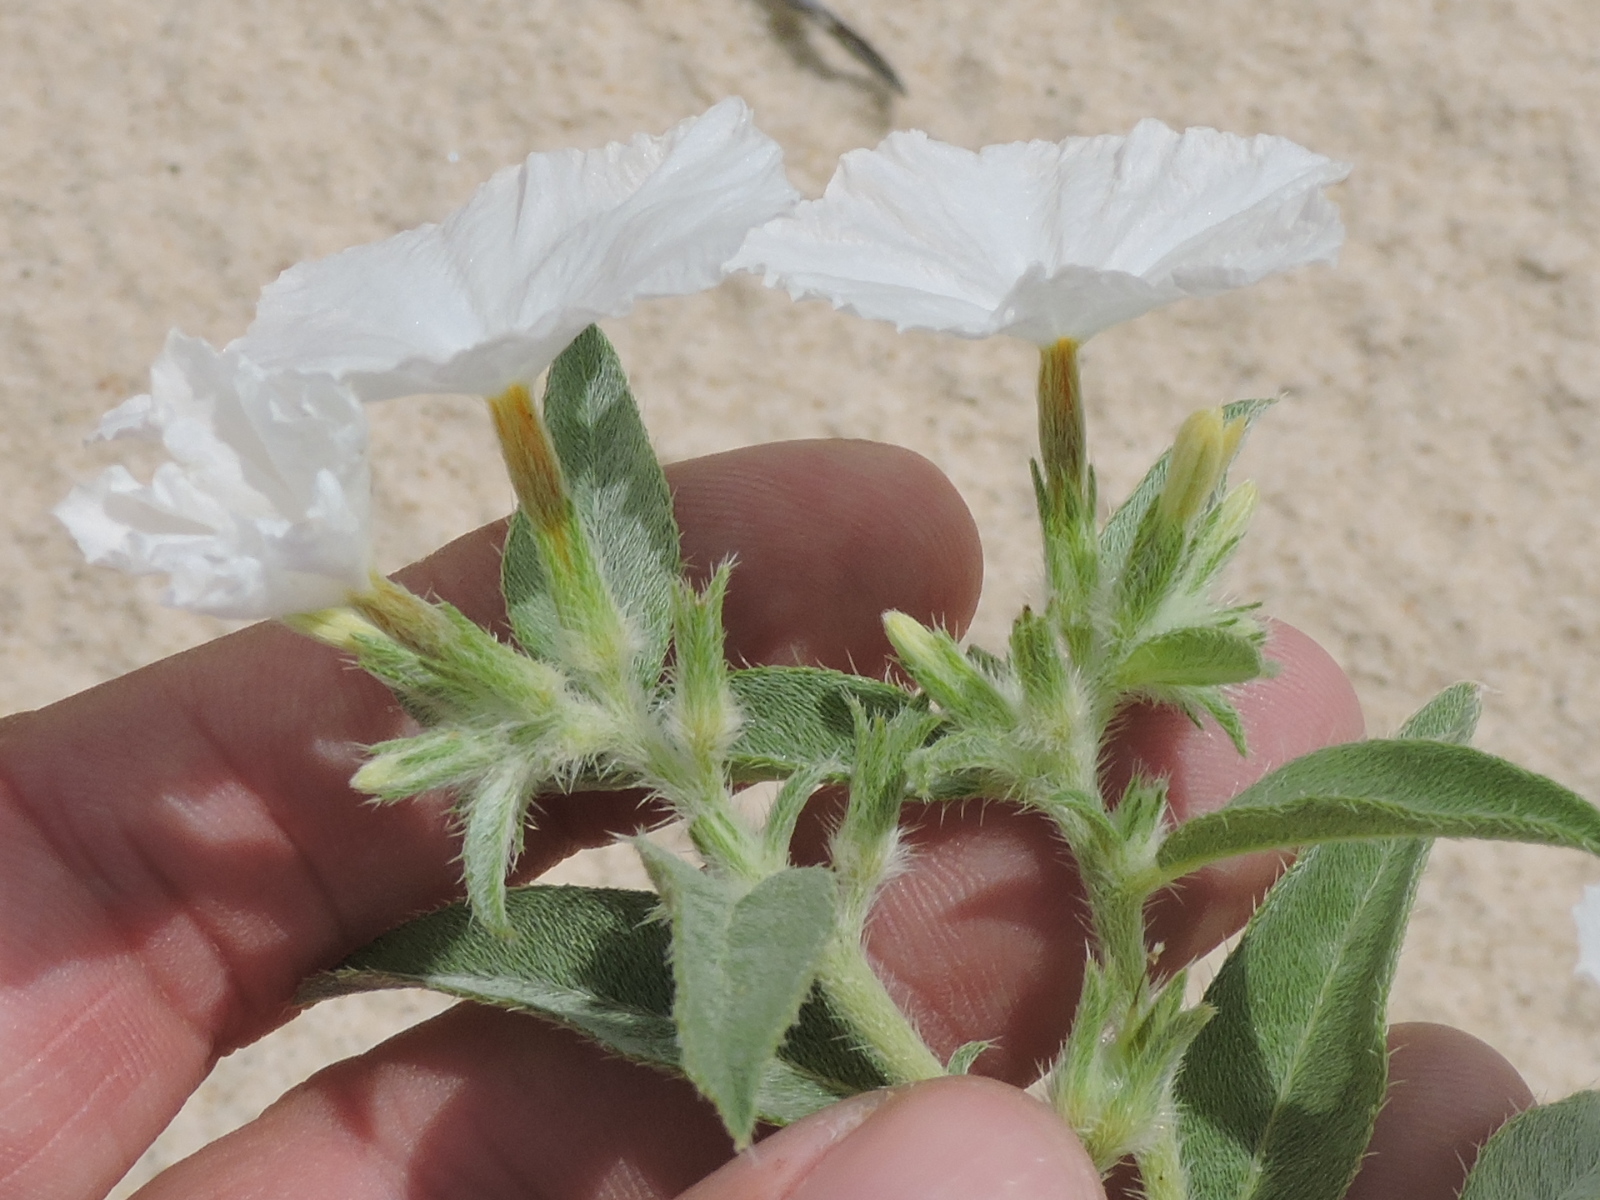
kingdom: Plantae
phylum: Tracheophyta
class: Magnoliopsida
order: Boraginales
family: Heliotropiaceae
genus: Euploca
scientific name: Euploca convolvulacea
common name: Bindweed heliotrope
